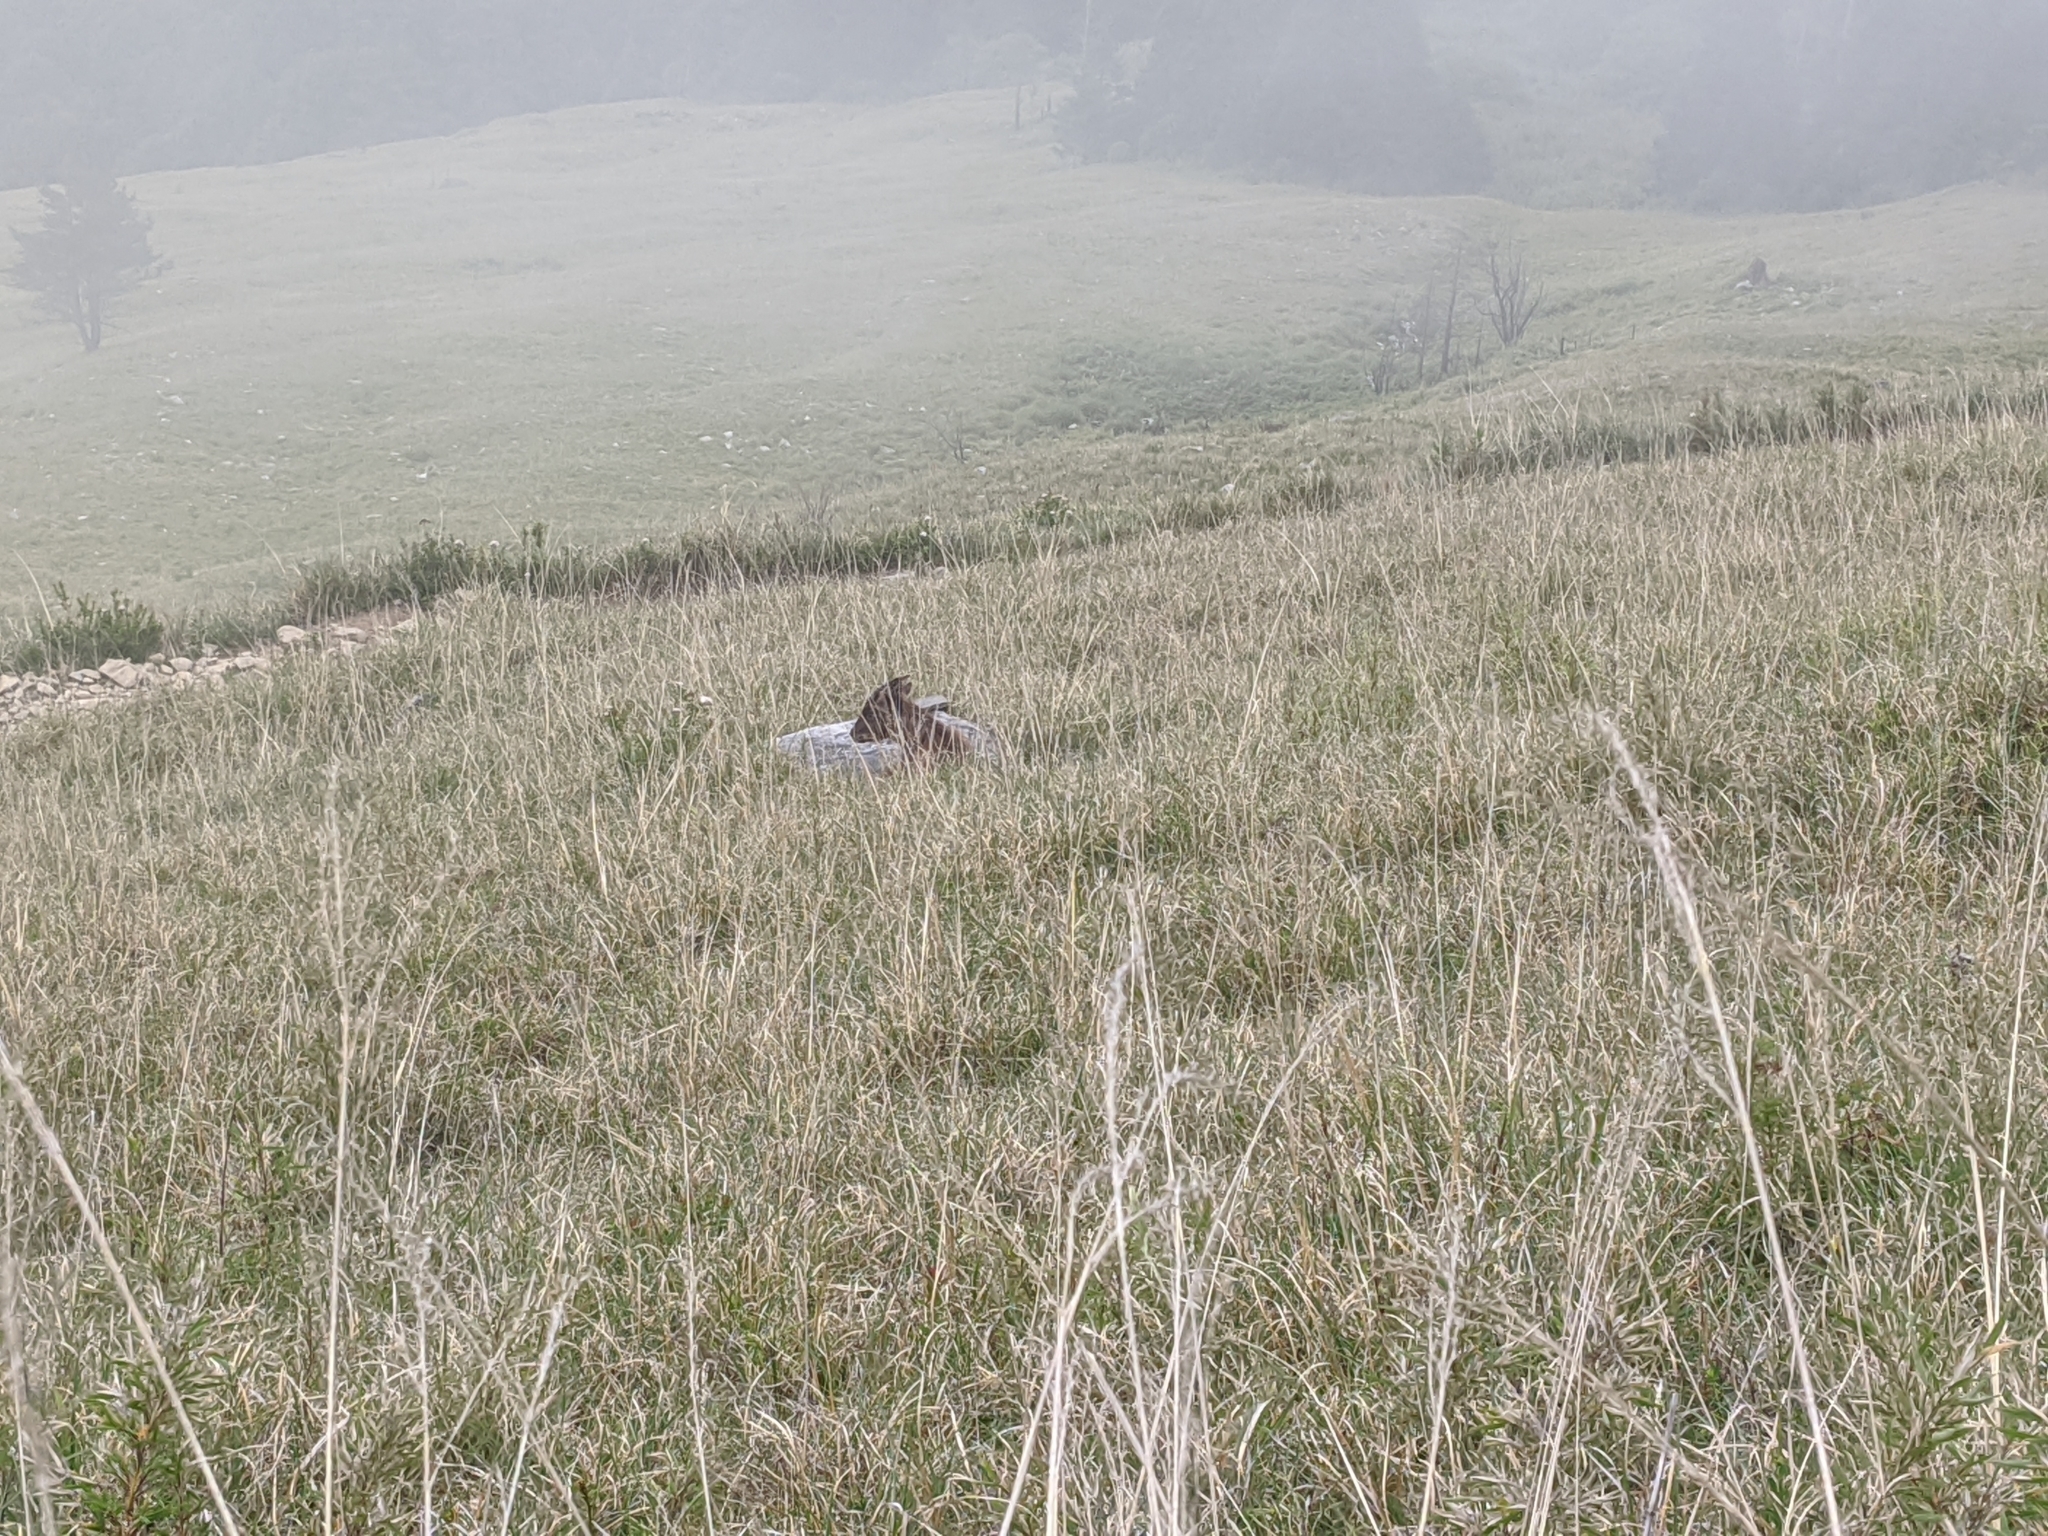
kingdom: Animalia
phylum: Chordata
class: Mammalia
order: Artiodactyla
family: Bovidae
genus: Capricornis
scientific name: Capricornis swinhoei
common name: Formosan serow
